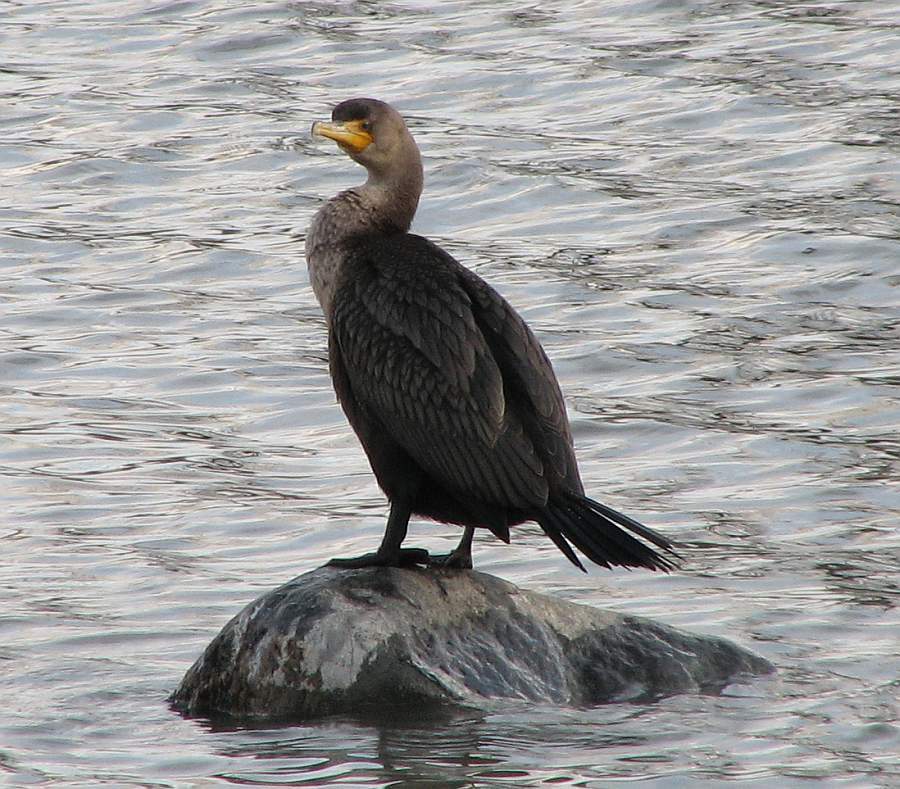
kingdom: Animalia
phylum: Chordata
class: Aves
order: Suliformes
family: Phalacrocoracidae
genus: Phalacrocorax
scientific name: Phalacrocorax auritus
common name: Double-crested cormorant
